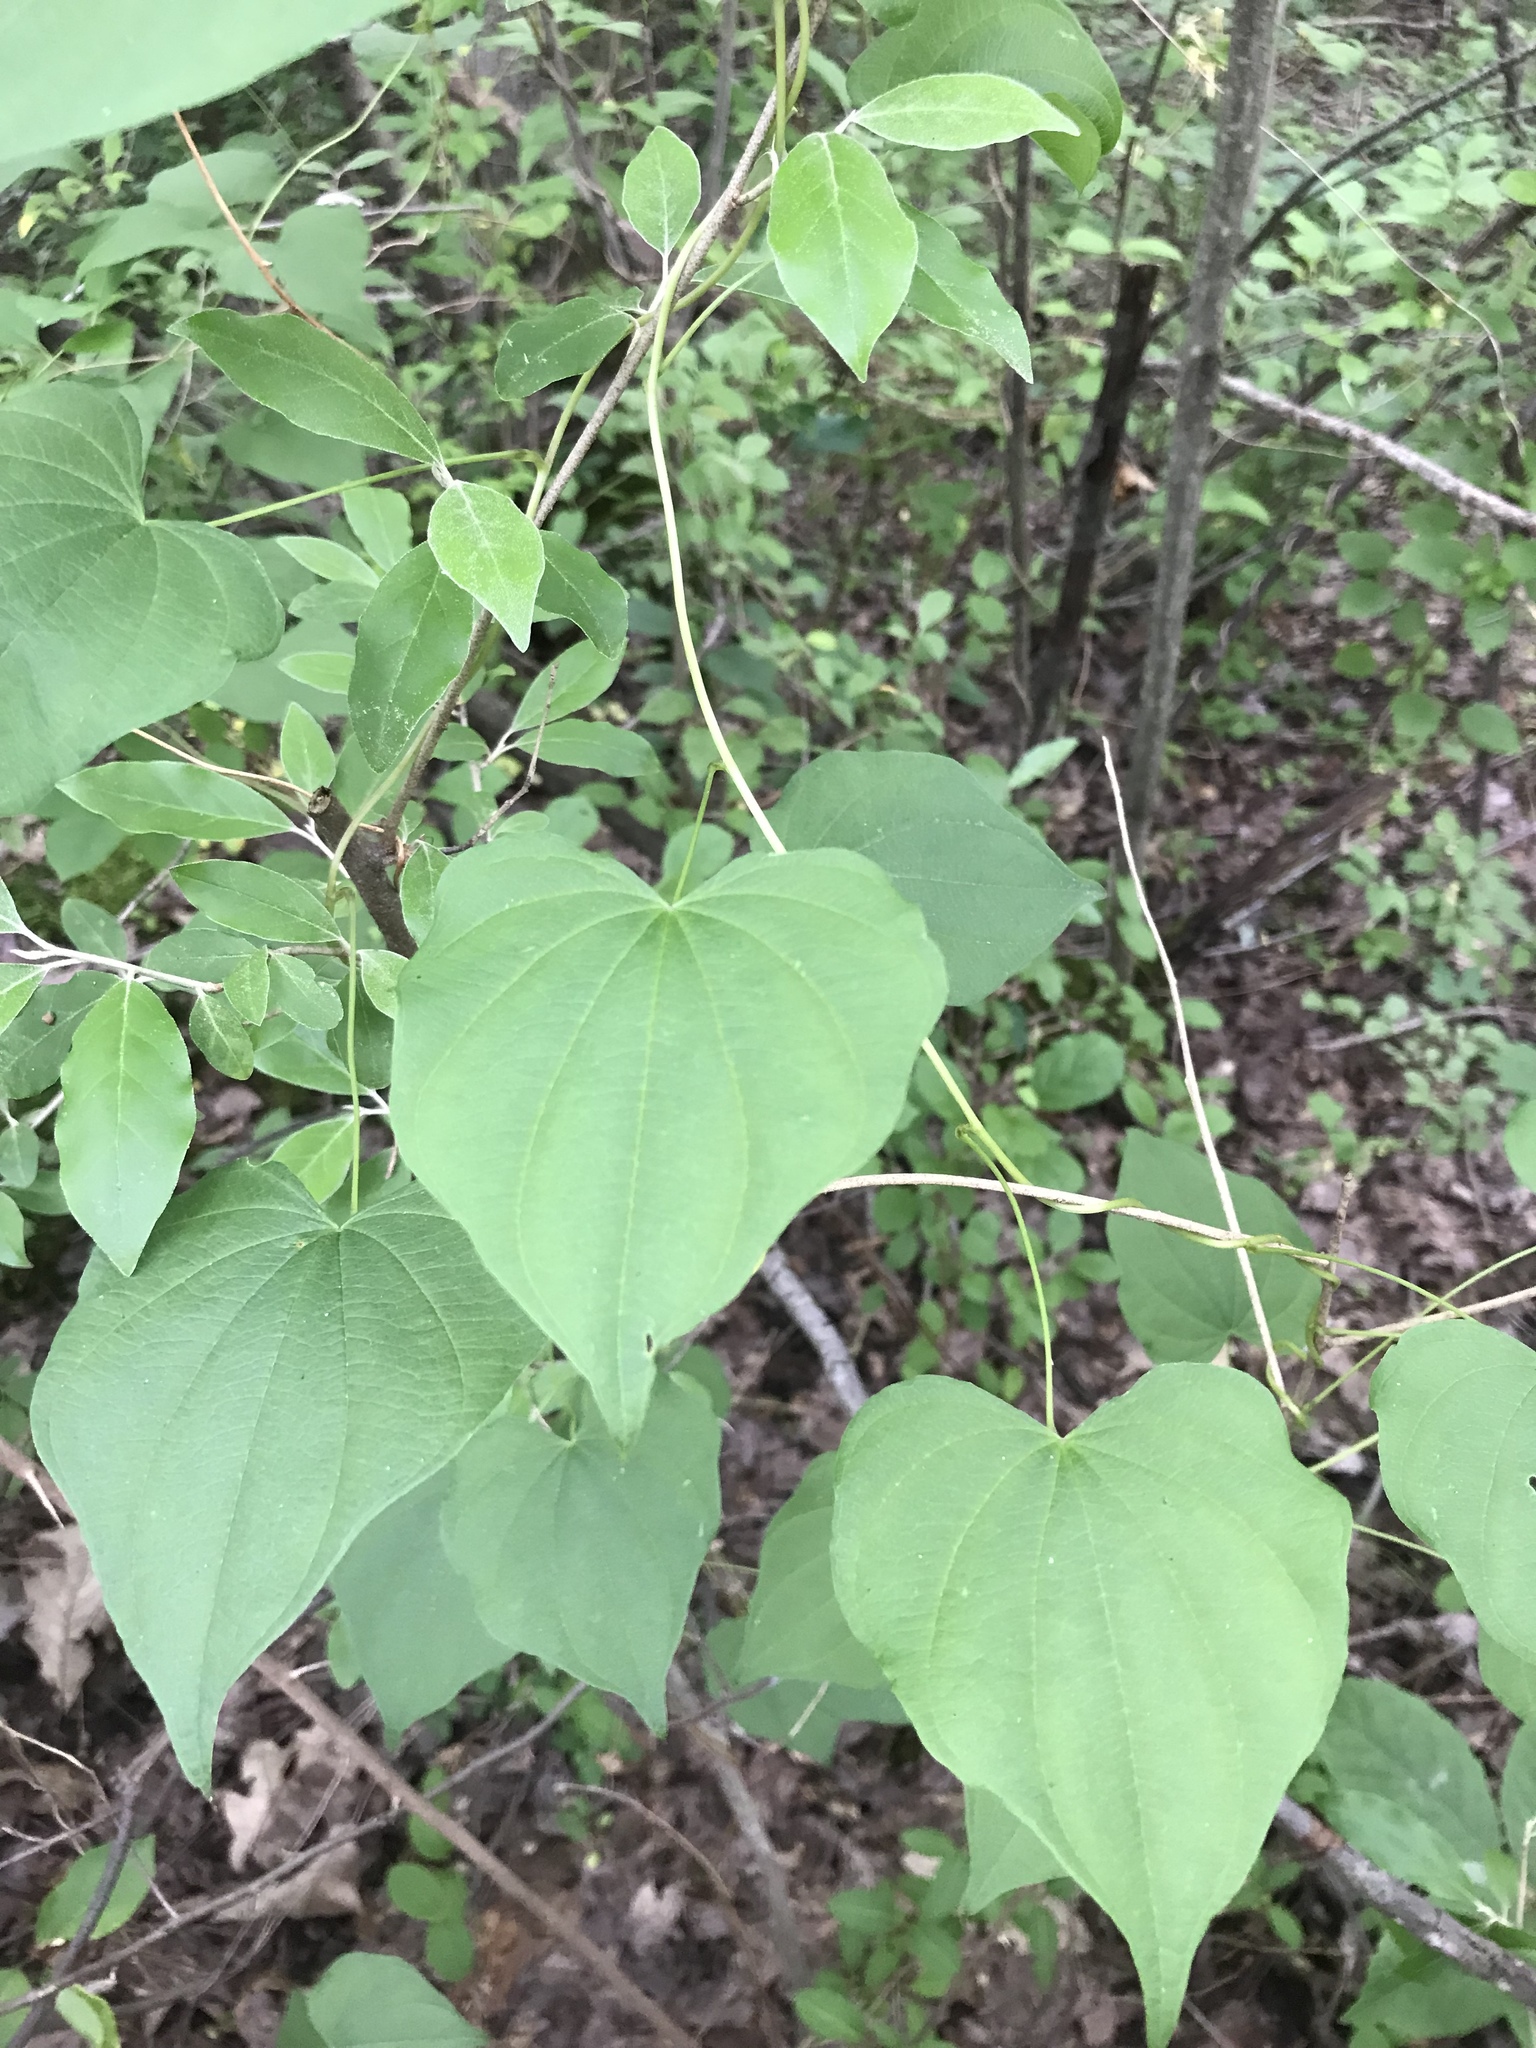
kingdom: Plantae
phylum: Tracheophyta
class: Liliopsida
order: Dioscoreales
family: Dioscoreaceae
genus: Dioscorea
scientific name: Dioscorea villosa
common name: Wild yam
